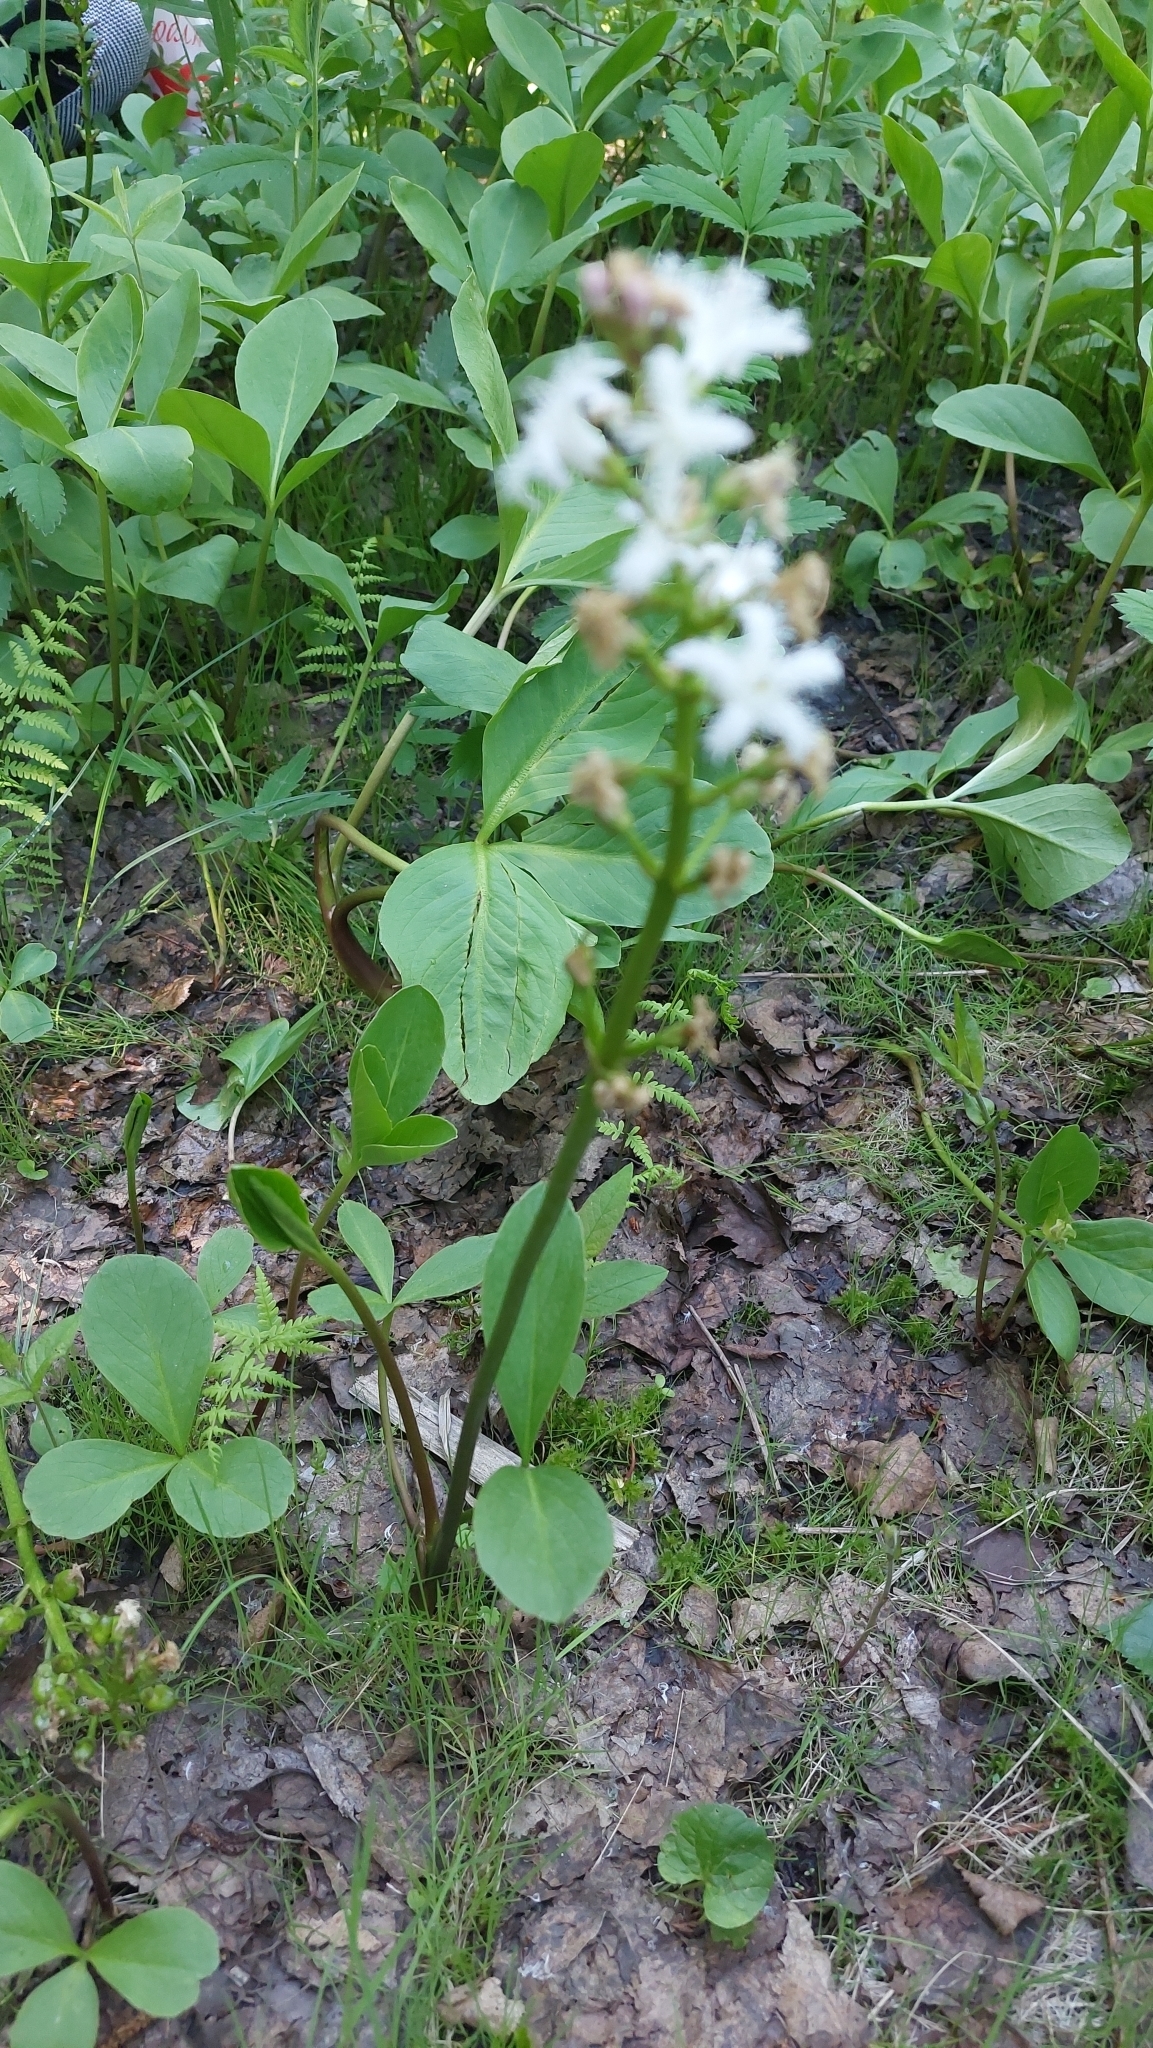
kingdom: Plantae
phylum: Tracheophyta
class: Magnoliopsida
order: Asterales
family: Menyanthaceae
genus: Menyanthes
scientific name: Menyanthes trifoliata
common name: Bogbean
